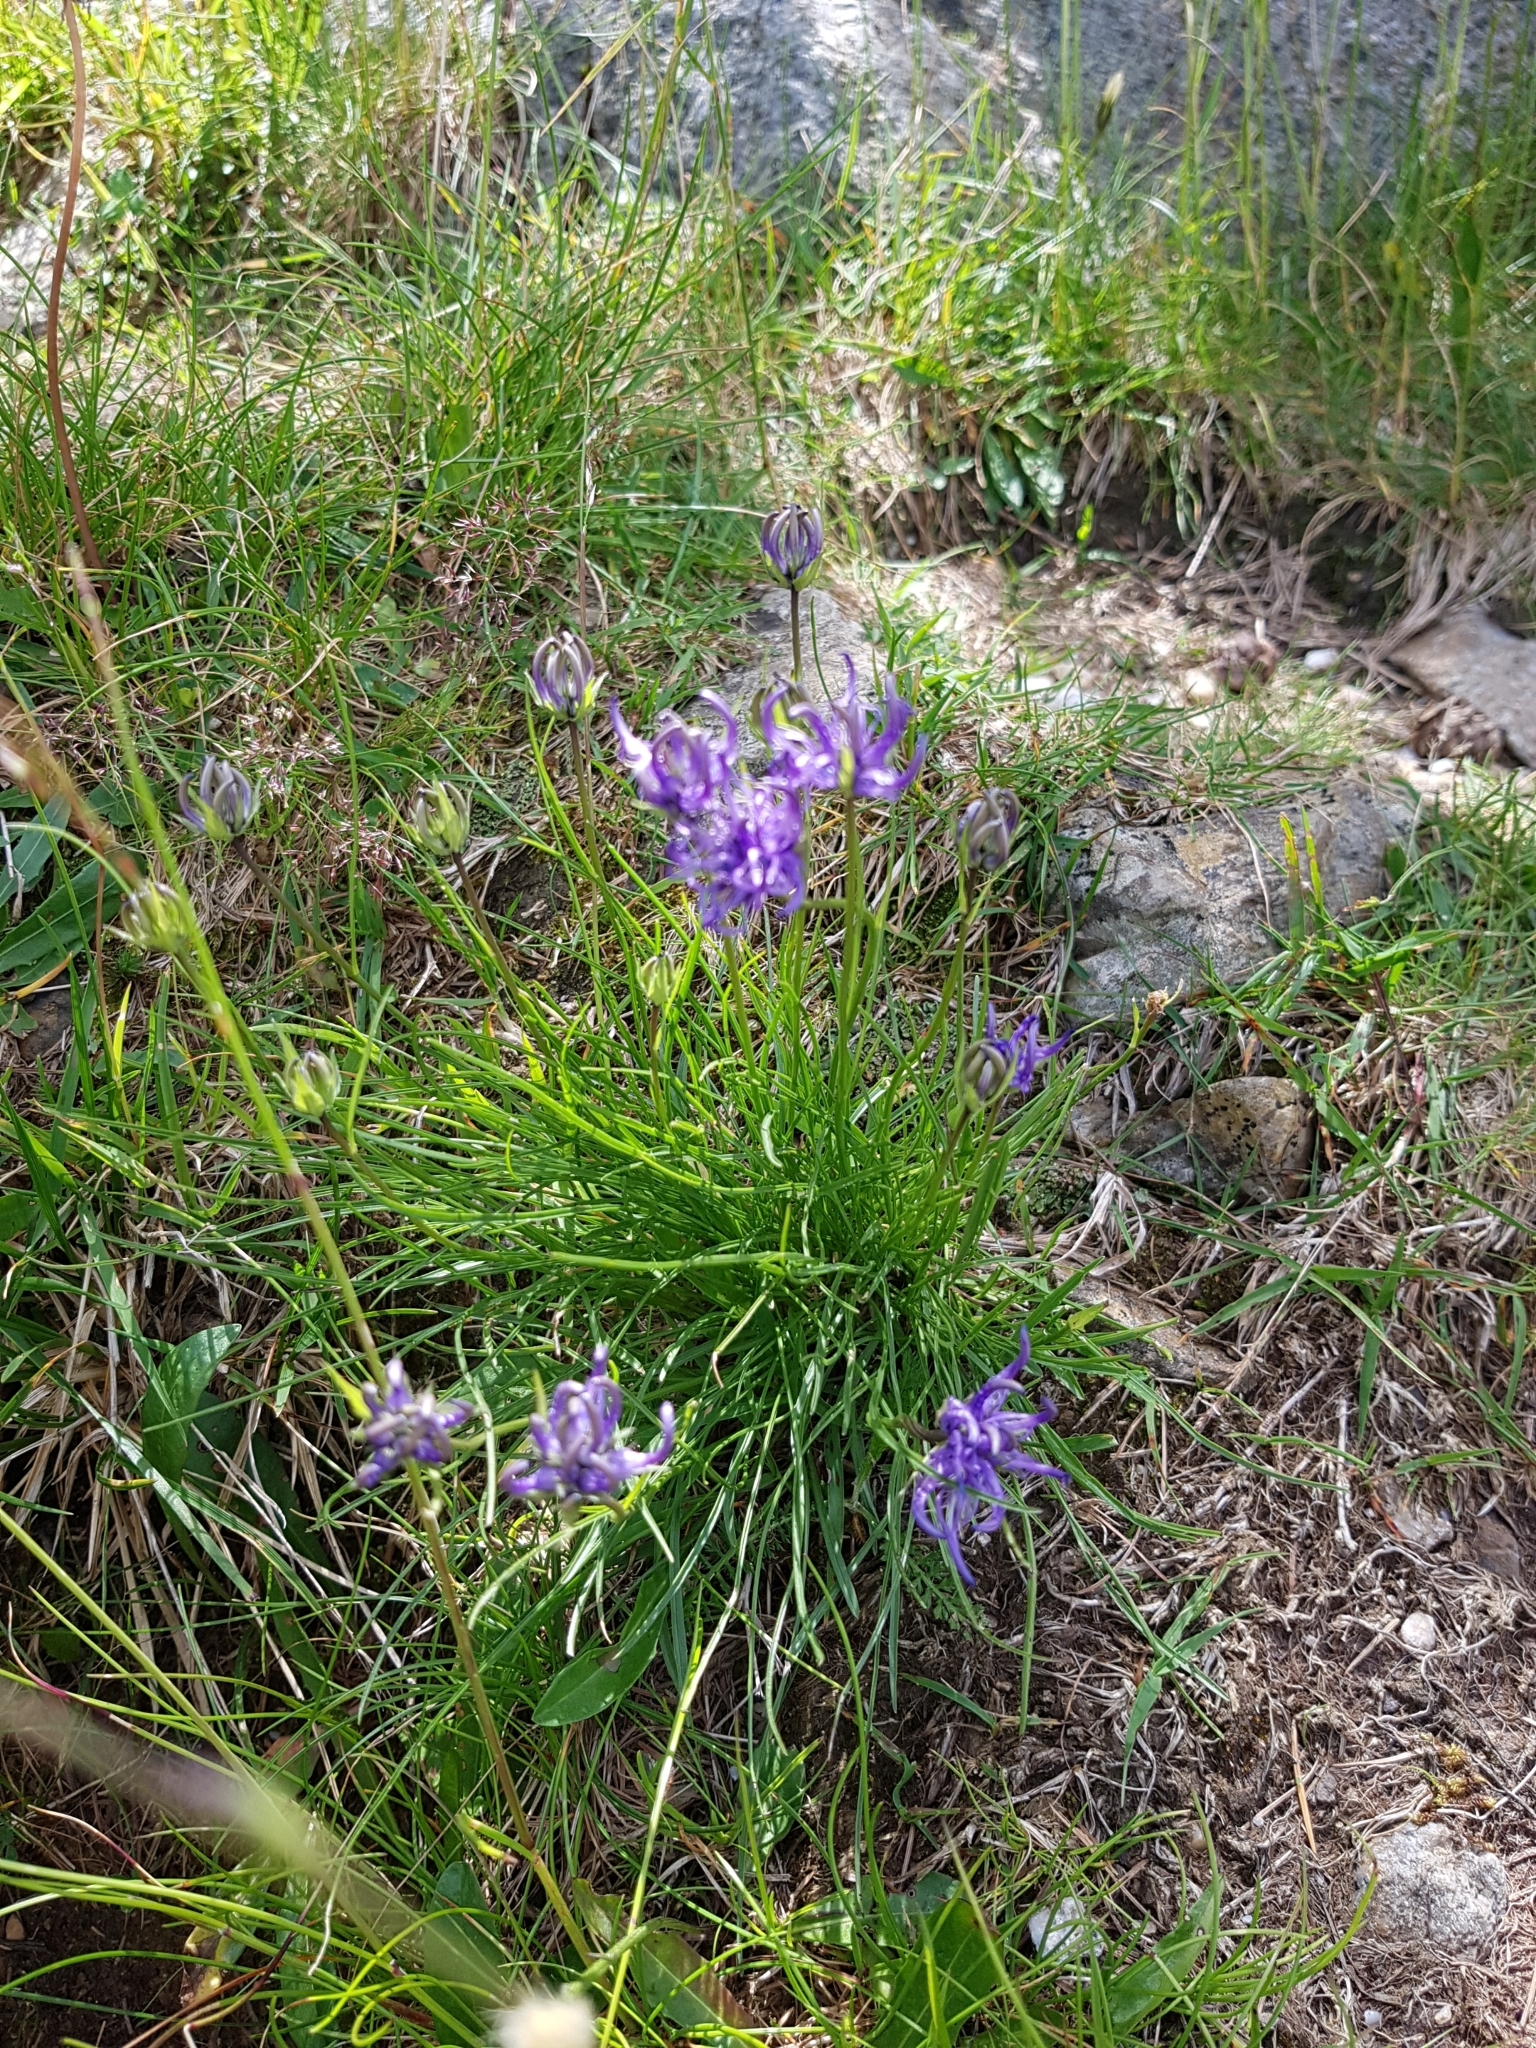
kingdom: Plantae
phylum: Tracheophyta
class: Magnoliopsida
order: Asterales
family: Campanulaceae
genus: Phyteuma
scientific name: Phyteuma hemisphaericum
